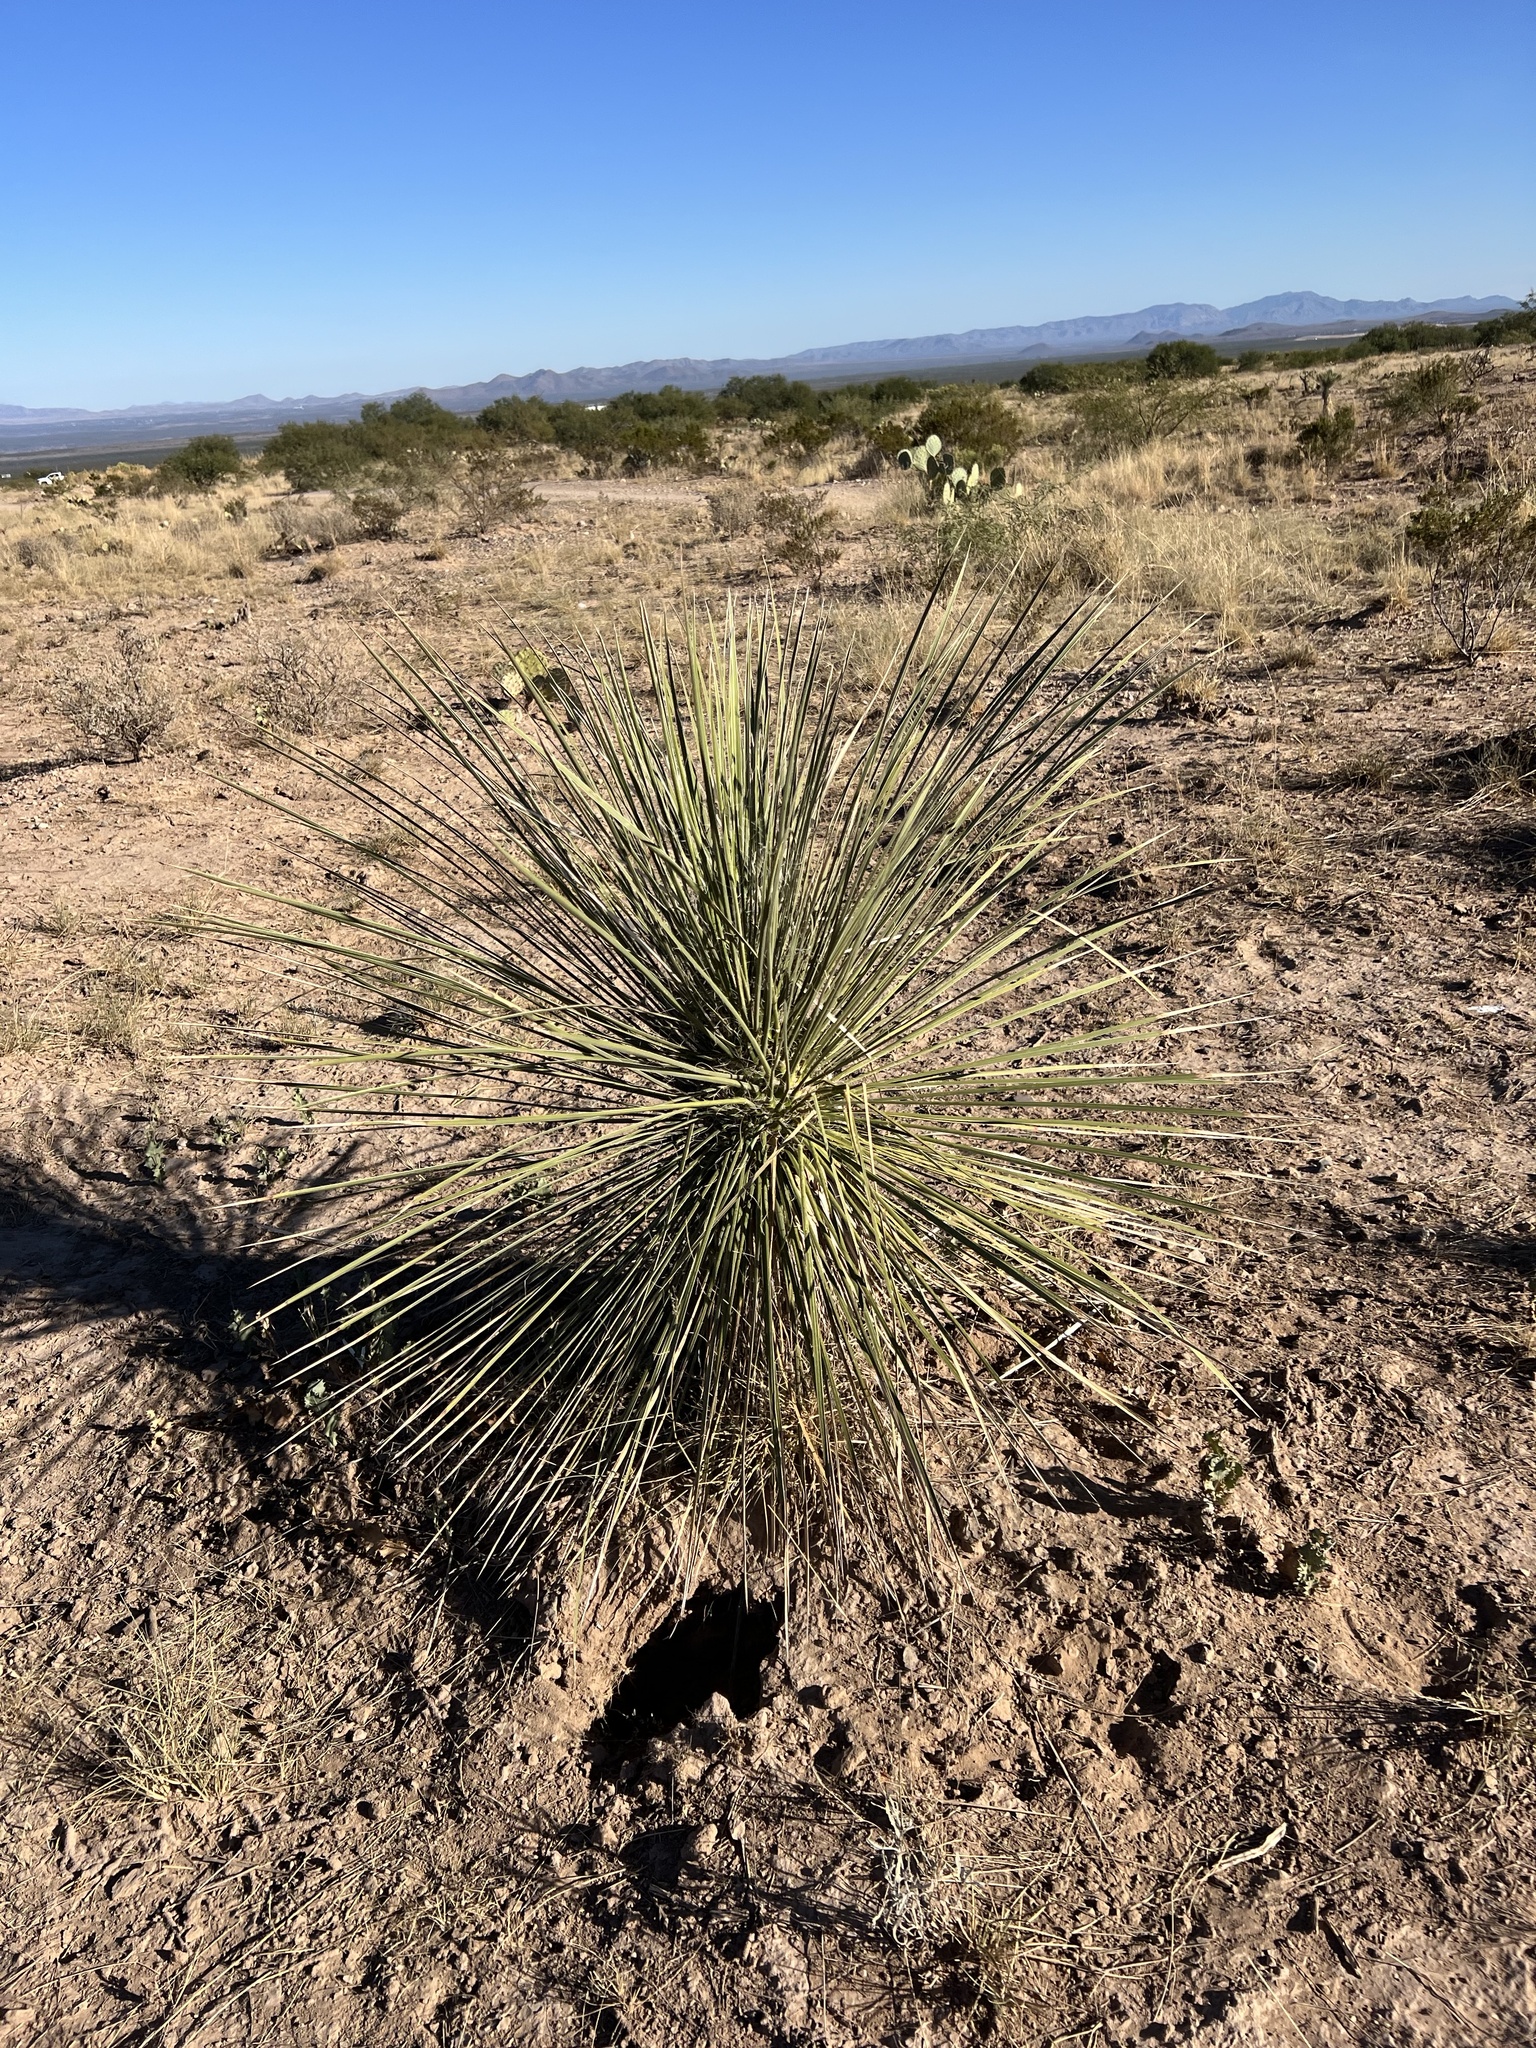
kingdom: Plantae
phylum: Tracheophyta
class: Liliopsida
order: Asparagales
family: Asparagaceae
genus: Yucca
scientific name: Yucca elata
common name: Palmella
